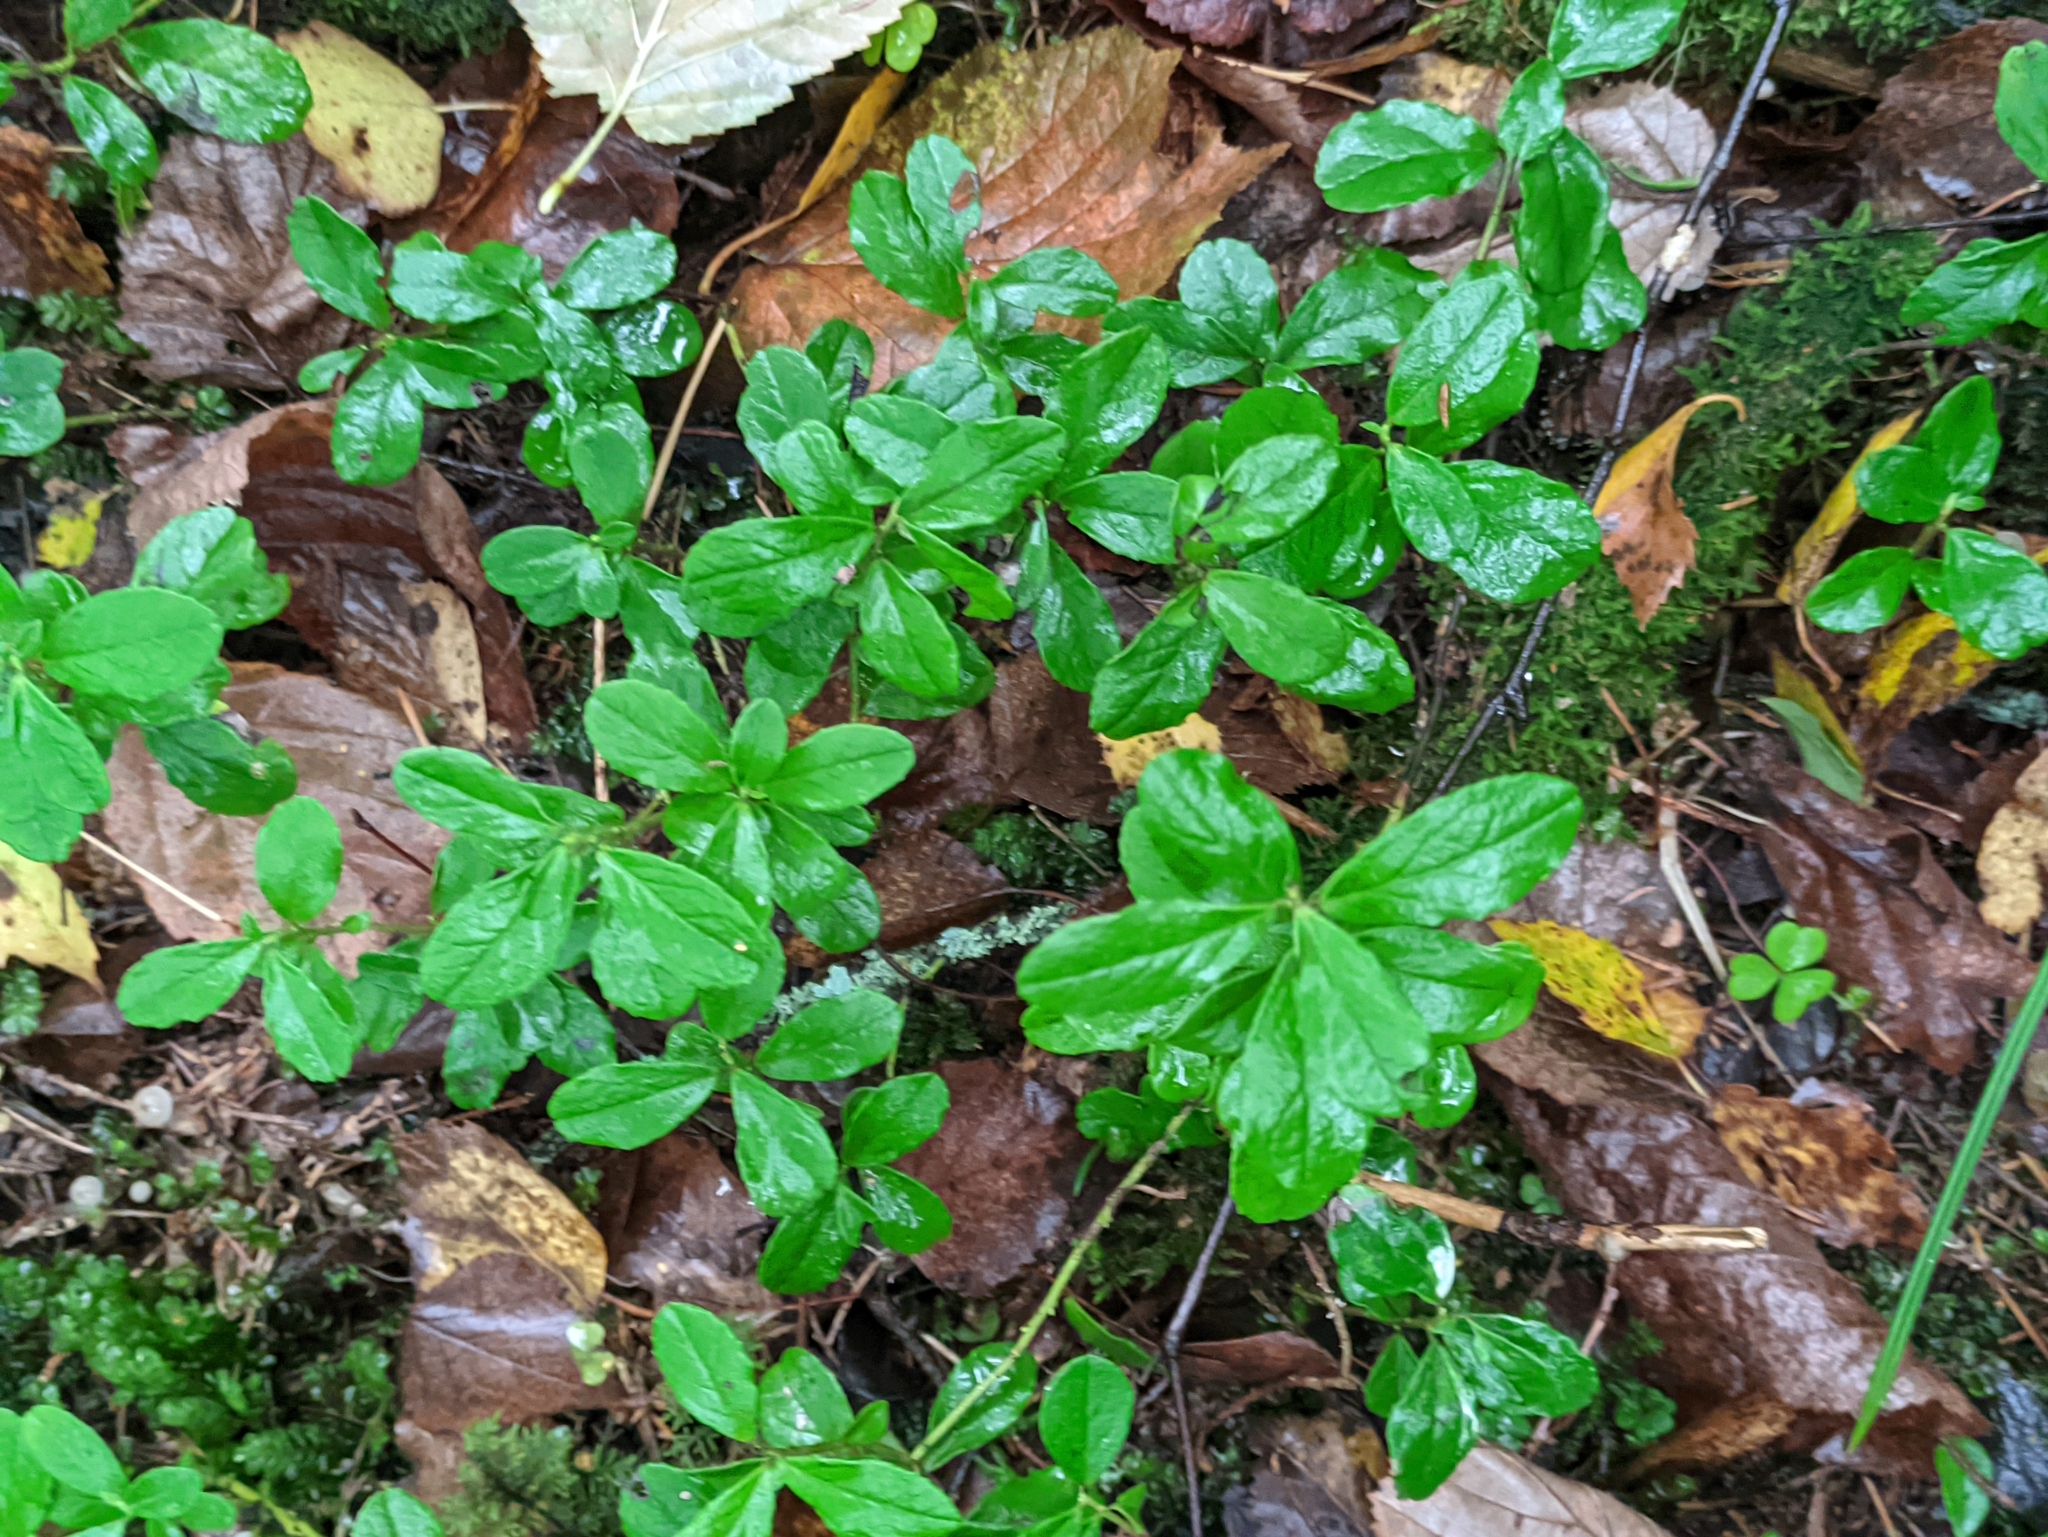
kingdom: Plantae
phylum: Tracheophyta
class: Magnoliopsida
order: Ericales
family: Ericaceae
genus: Vaccinium
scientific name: Vaccinium vitis-idaea
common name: Cowberry
